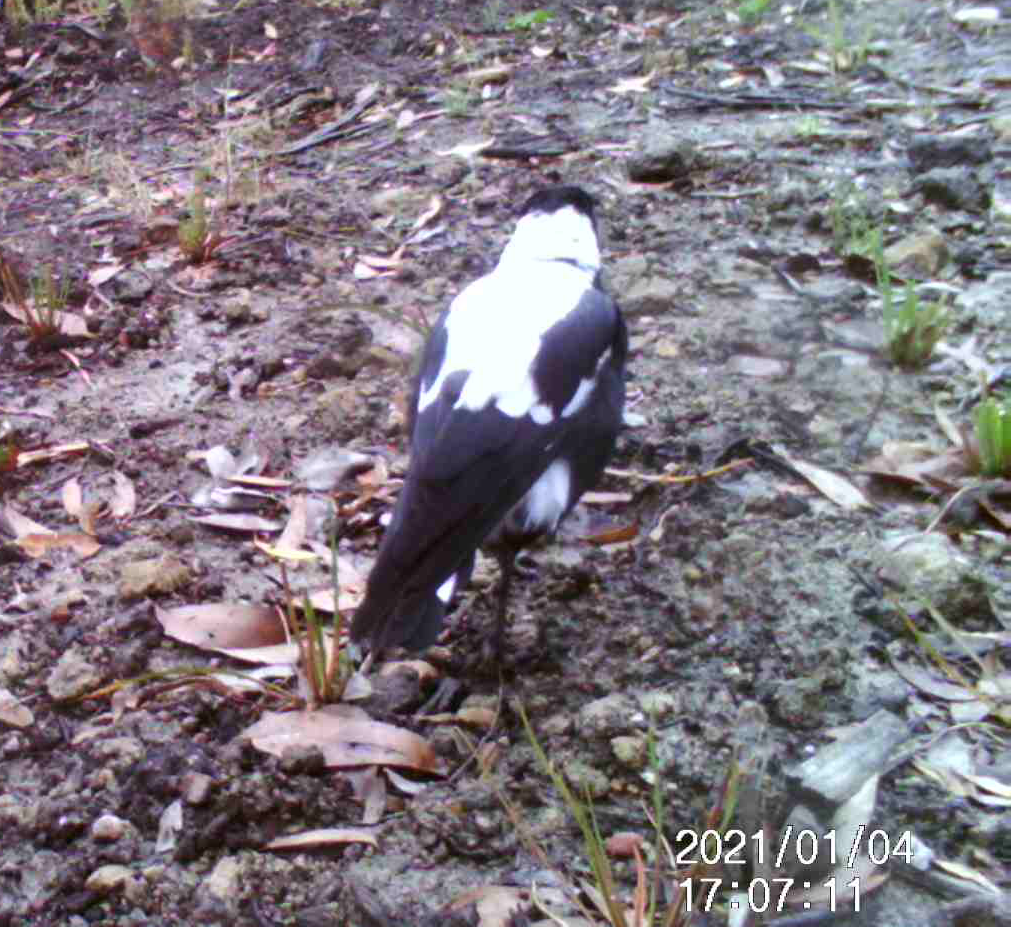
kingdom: Animalia
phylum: Chordata
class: Aves
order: Passeriformes
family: Cracticidae
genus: Gymnorhina
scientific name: Gymnorhina tibicen
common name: Australian magpie
